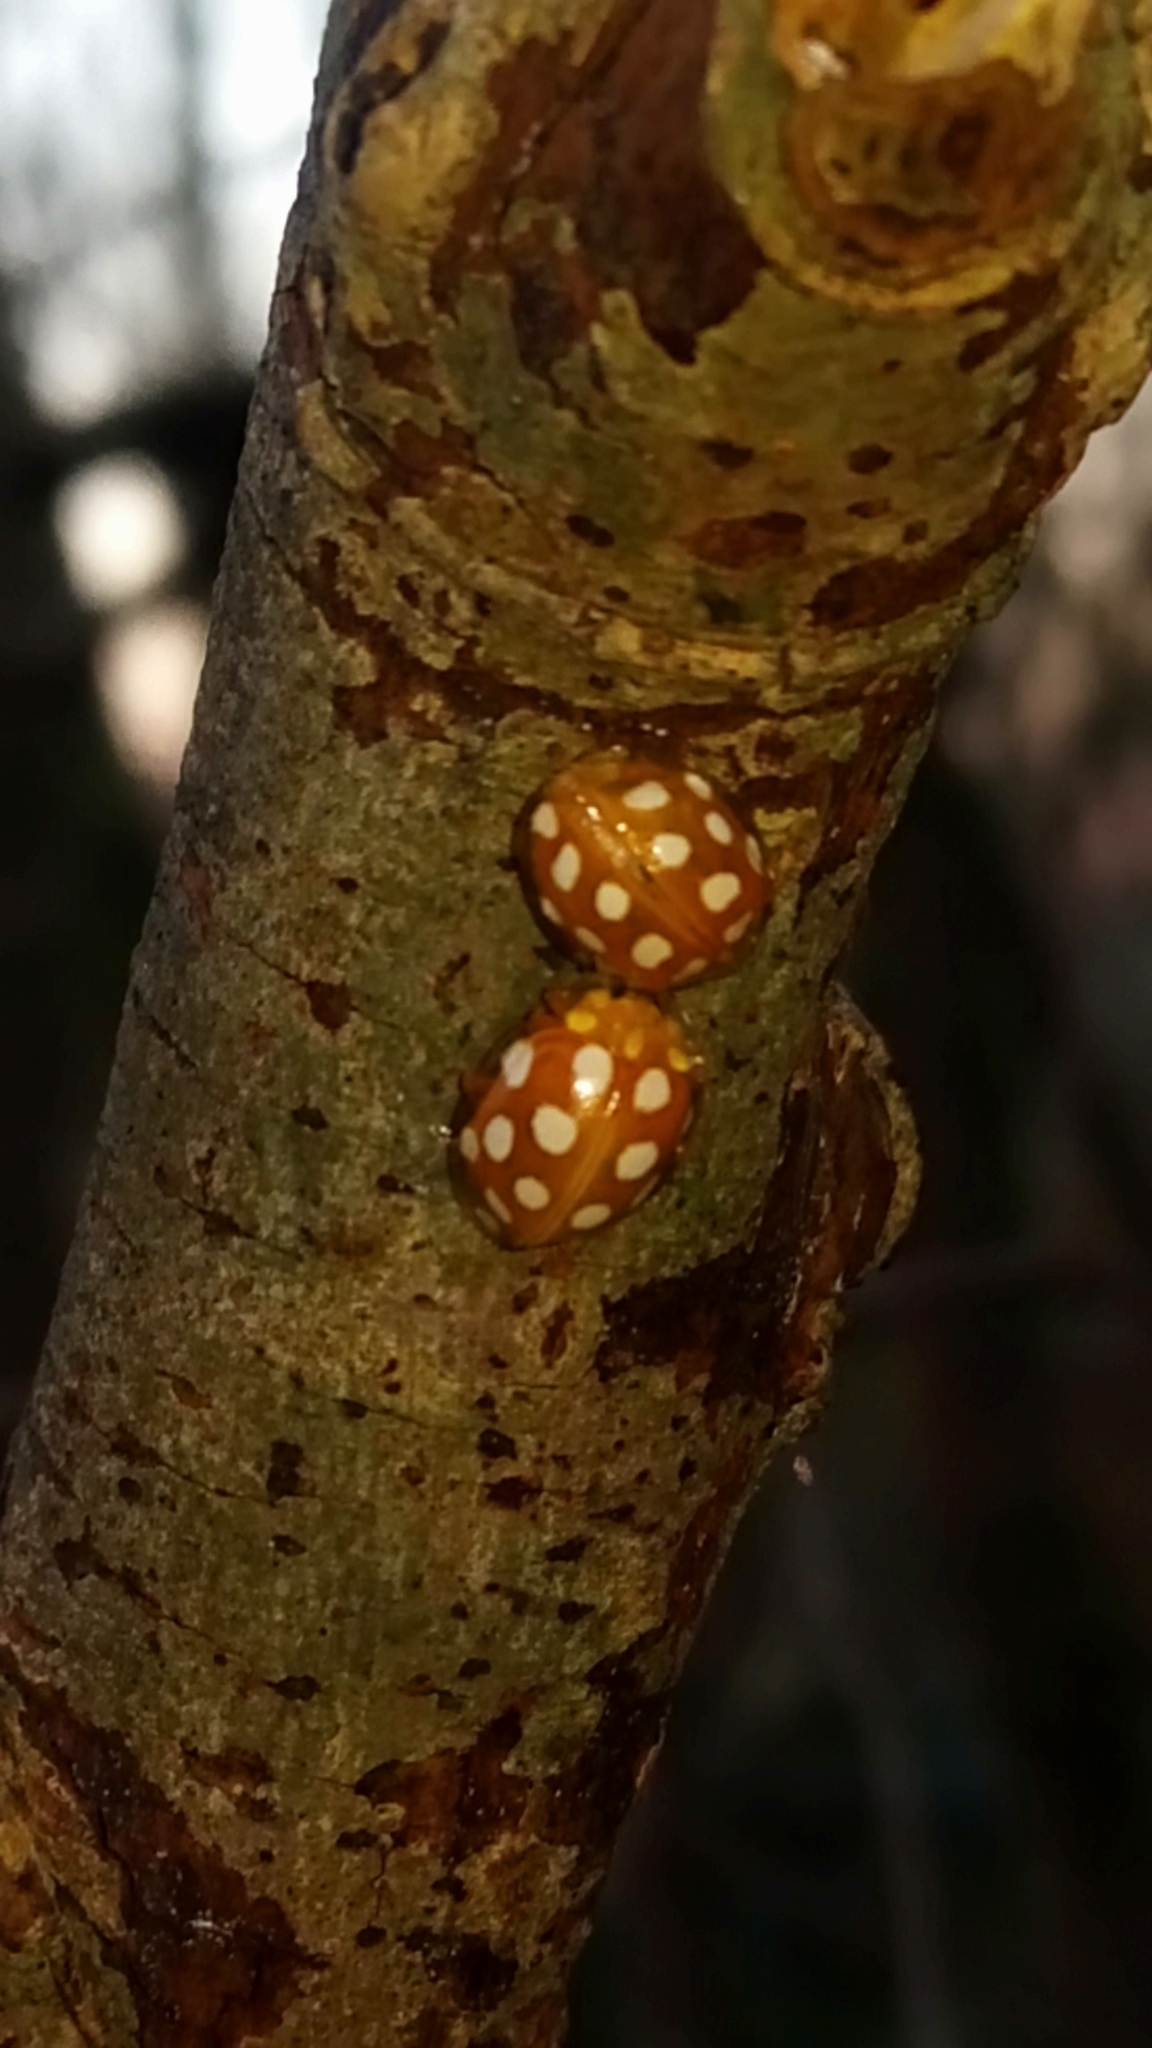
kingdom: Animalia
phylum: Arthropoda
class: Insecta
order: Coleoptera
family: Coccinellidae
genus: Halyzia
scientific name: Halyzia sedecimguttata
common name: Orange ladybird
